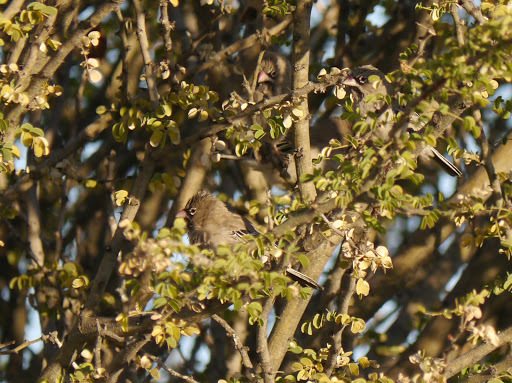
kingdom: Animalia
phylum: Chordata
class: Aves
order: Passeriformes
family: Ploceidae
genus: Sporopipes
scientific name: Sporopipes squamifrons
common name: Scaly-feathered weaver
